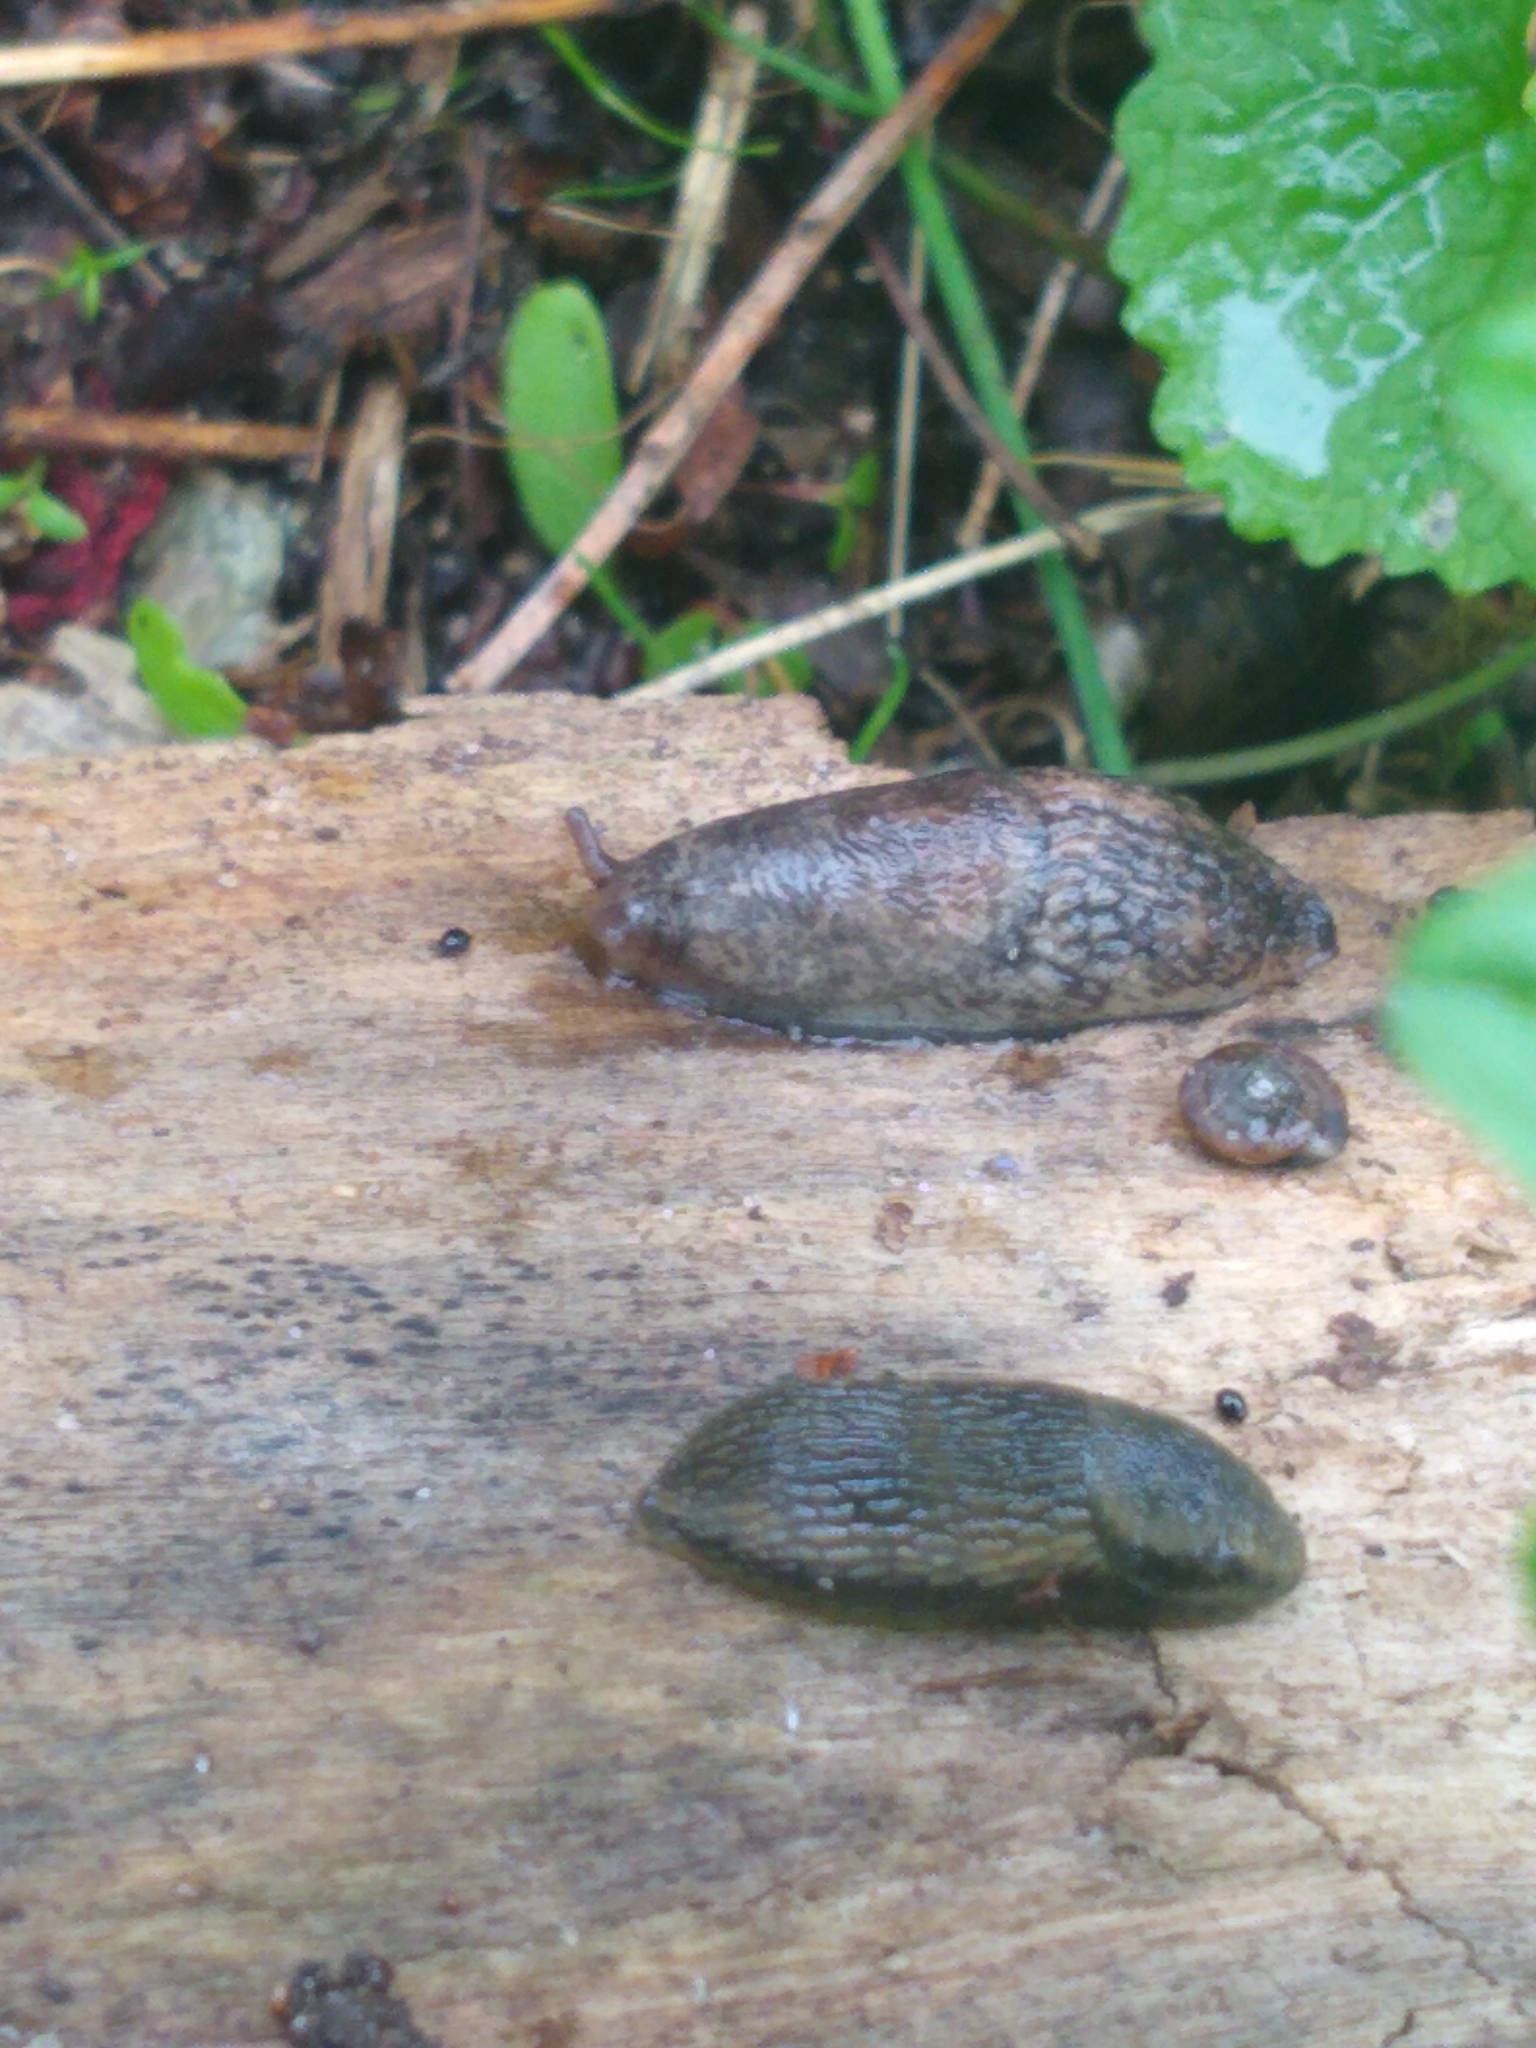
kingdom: Animalia
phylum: Mollusca
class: Gastropoda
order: Stylommatophora
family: Agriolimacidae
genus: Deroceras
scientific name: Deroceras reticulatum
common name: Gray field slug
